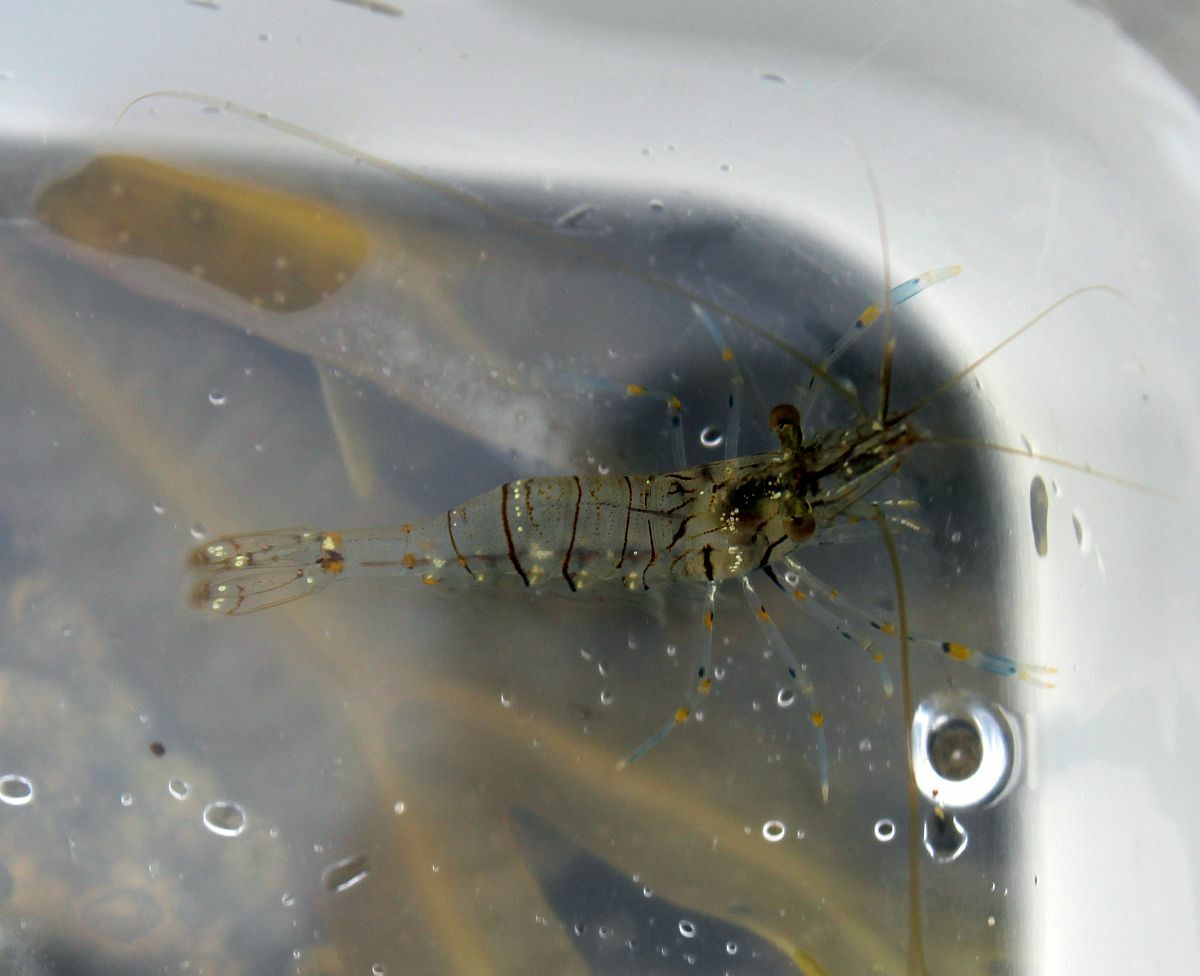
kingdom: Animalia
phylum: Arthropoda
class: Malacostraca
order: Decapoda
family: Palaemonidae
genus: Palaemon
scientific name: Palaemon elegans
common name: Grass prawm
